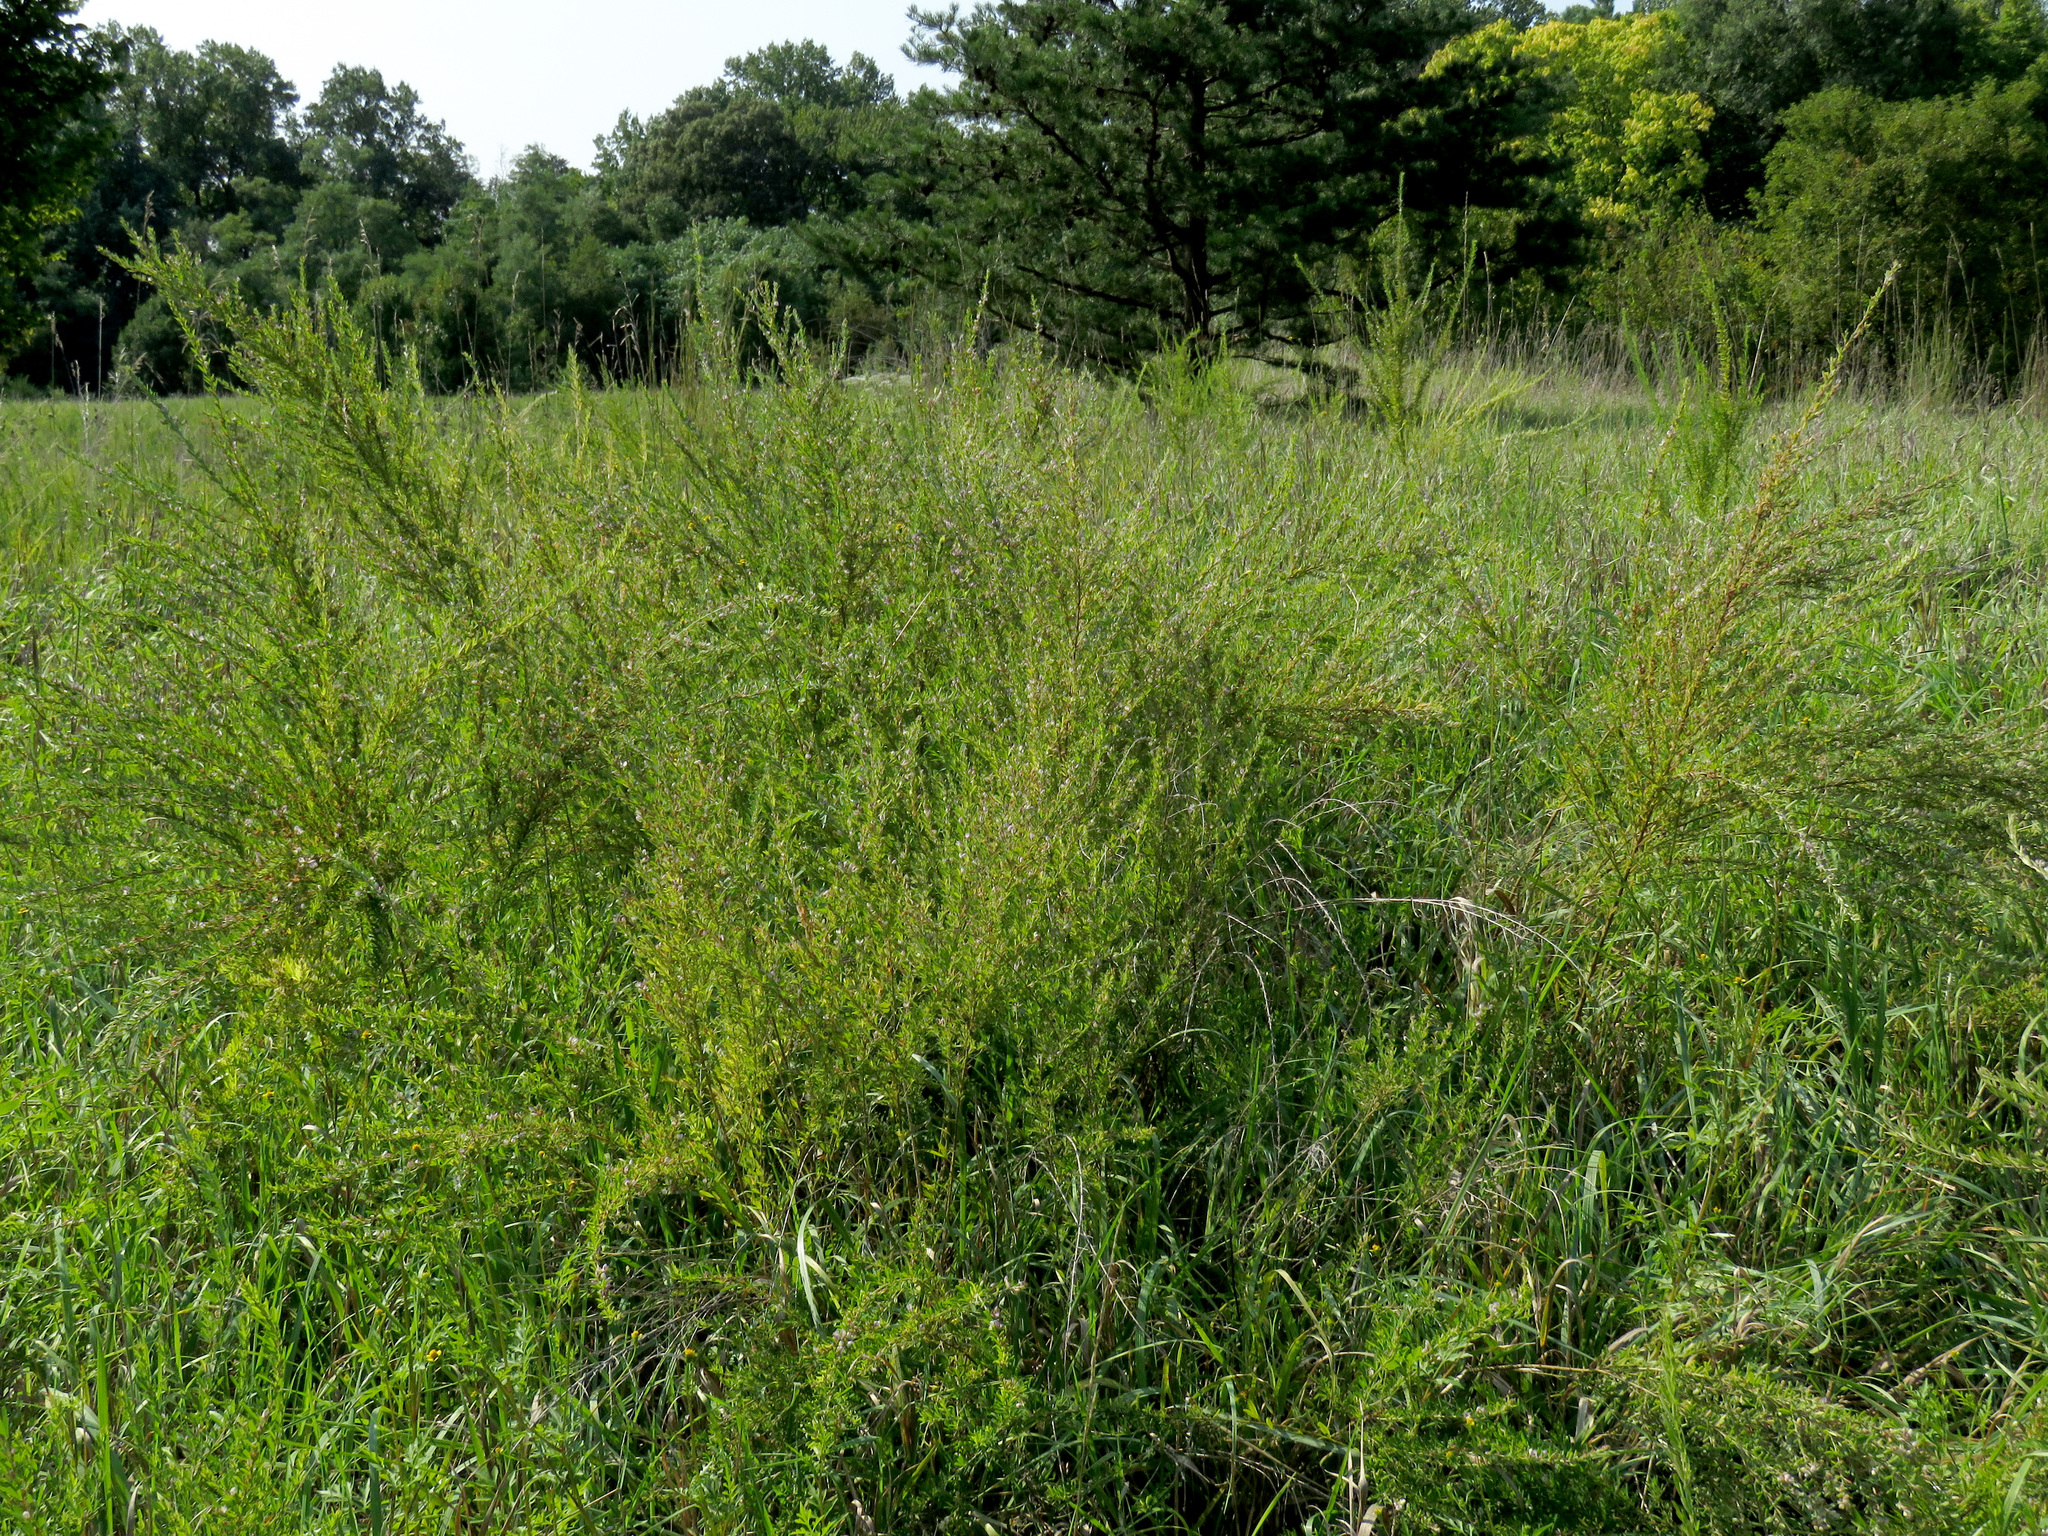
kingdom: Plantae
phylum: Tracheophyta
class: Magnoliopsida
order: Fabales
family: Fabaceae
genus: Lespedeza
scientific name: Lespedeza cuneata
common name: Chinese bush-clover
